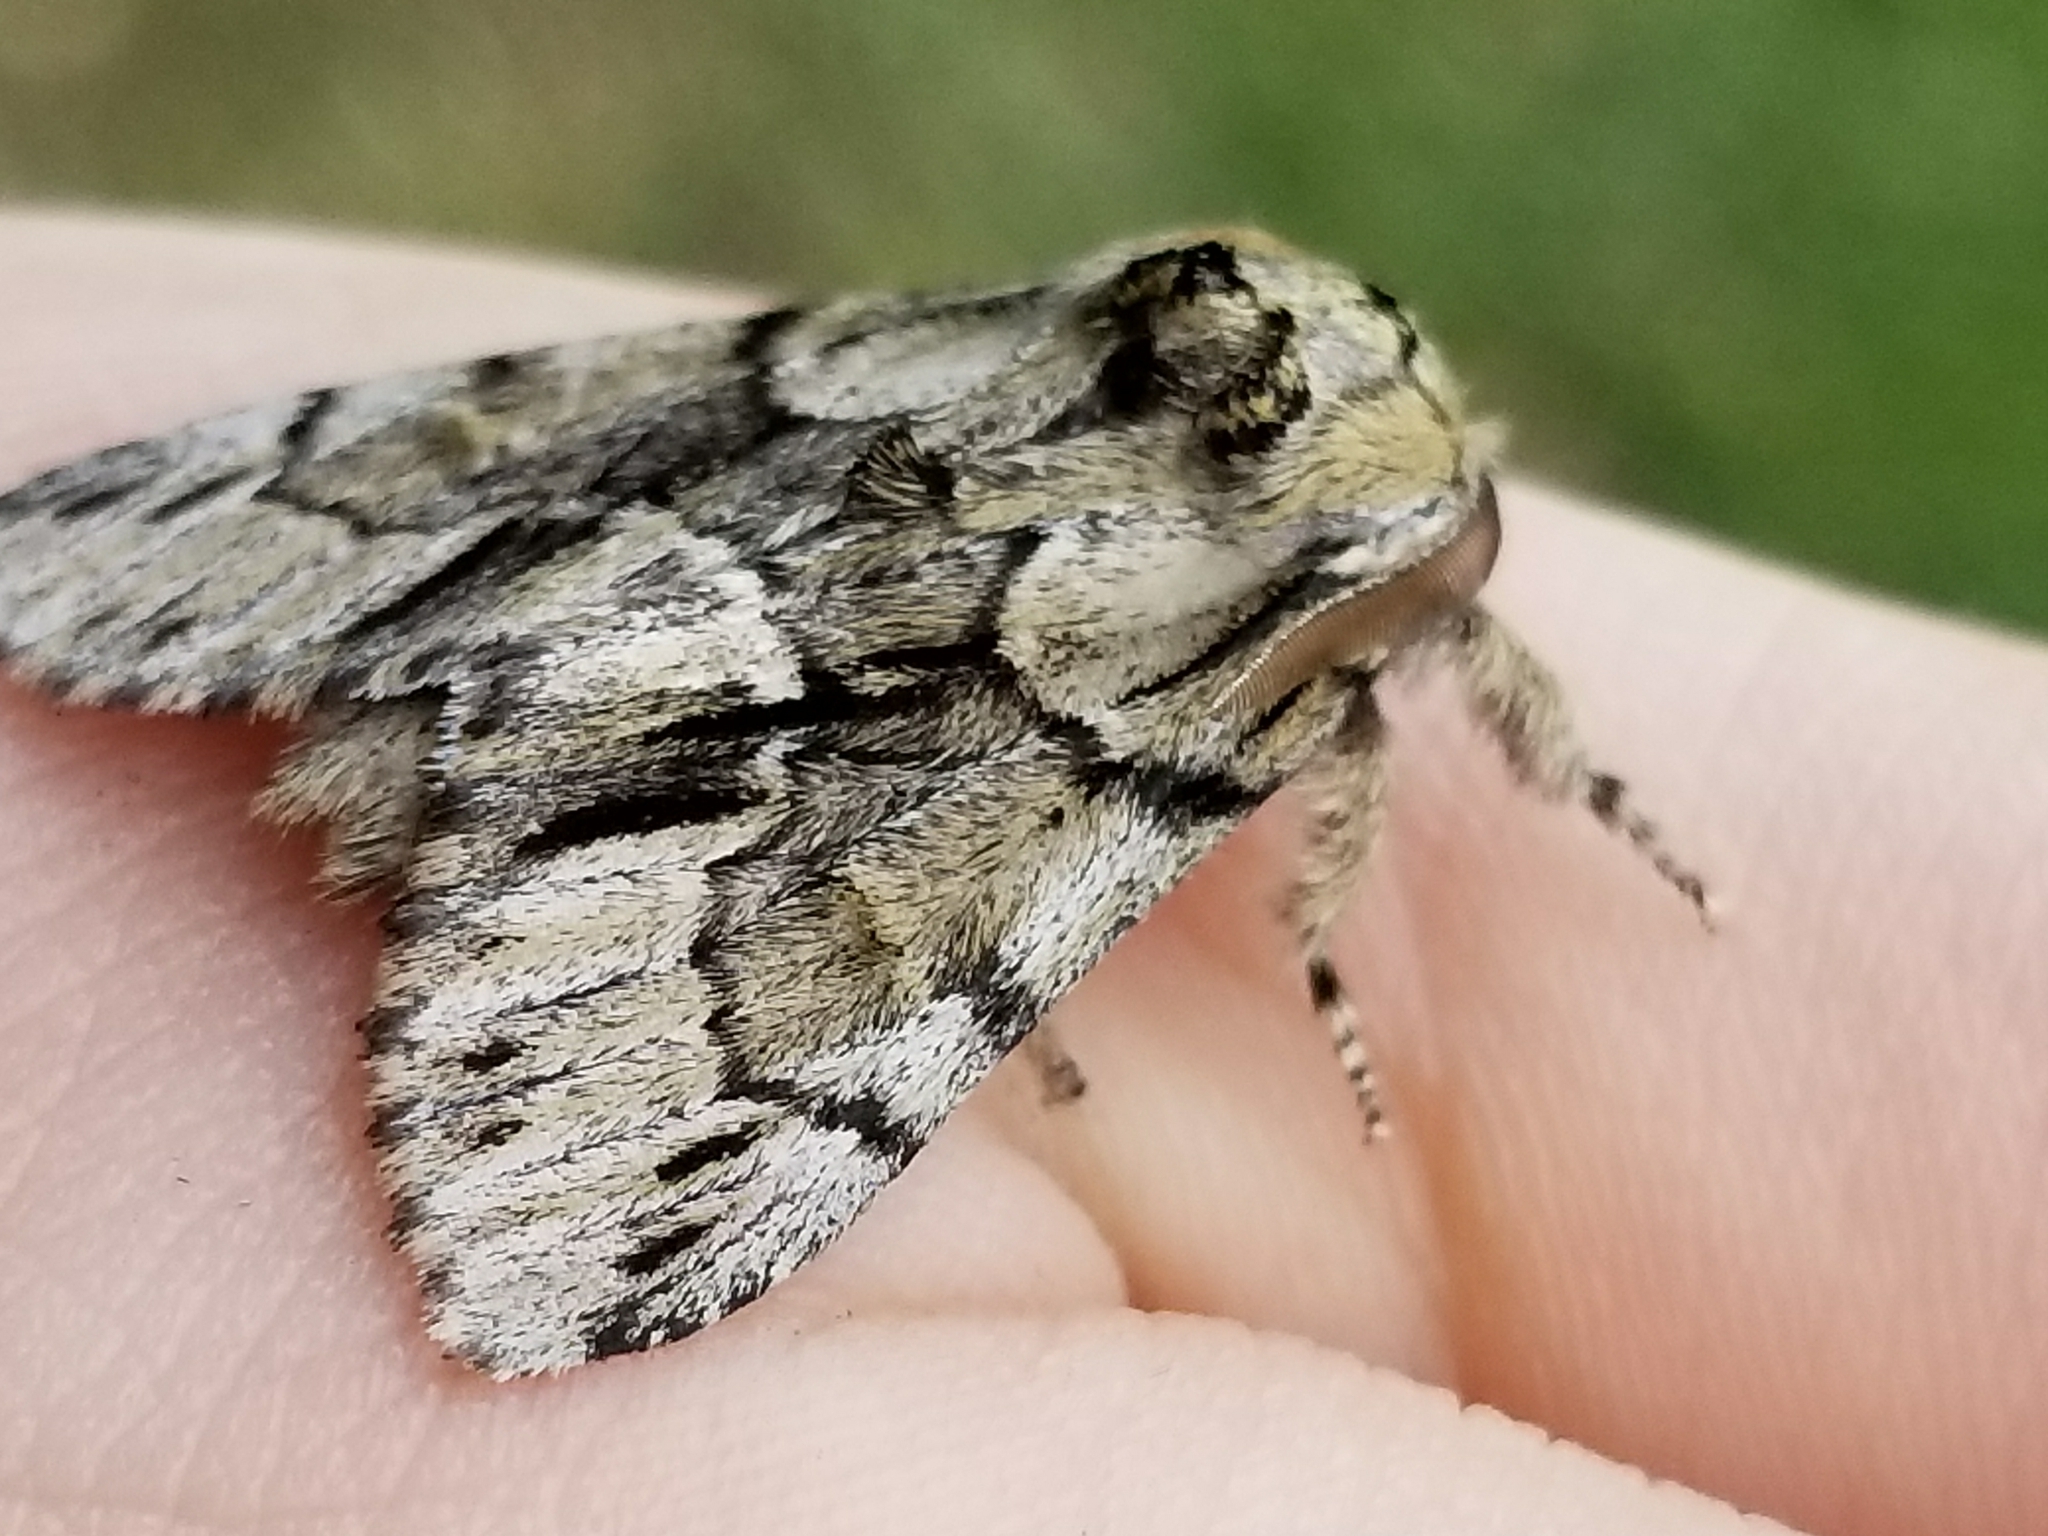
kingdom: Animalia
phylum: Arthropoda
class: Insecta
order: Lepidoptera
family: Notodontidae
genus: Paraeschra
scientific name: Paraeschra georgica
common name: Georgian prominent
